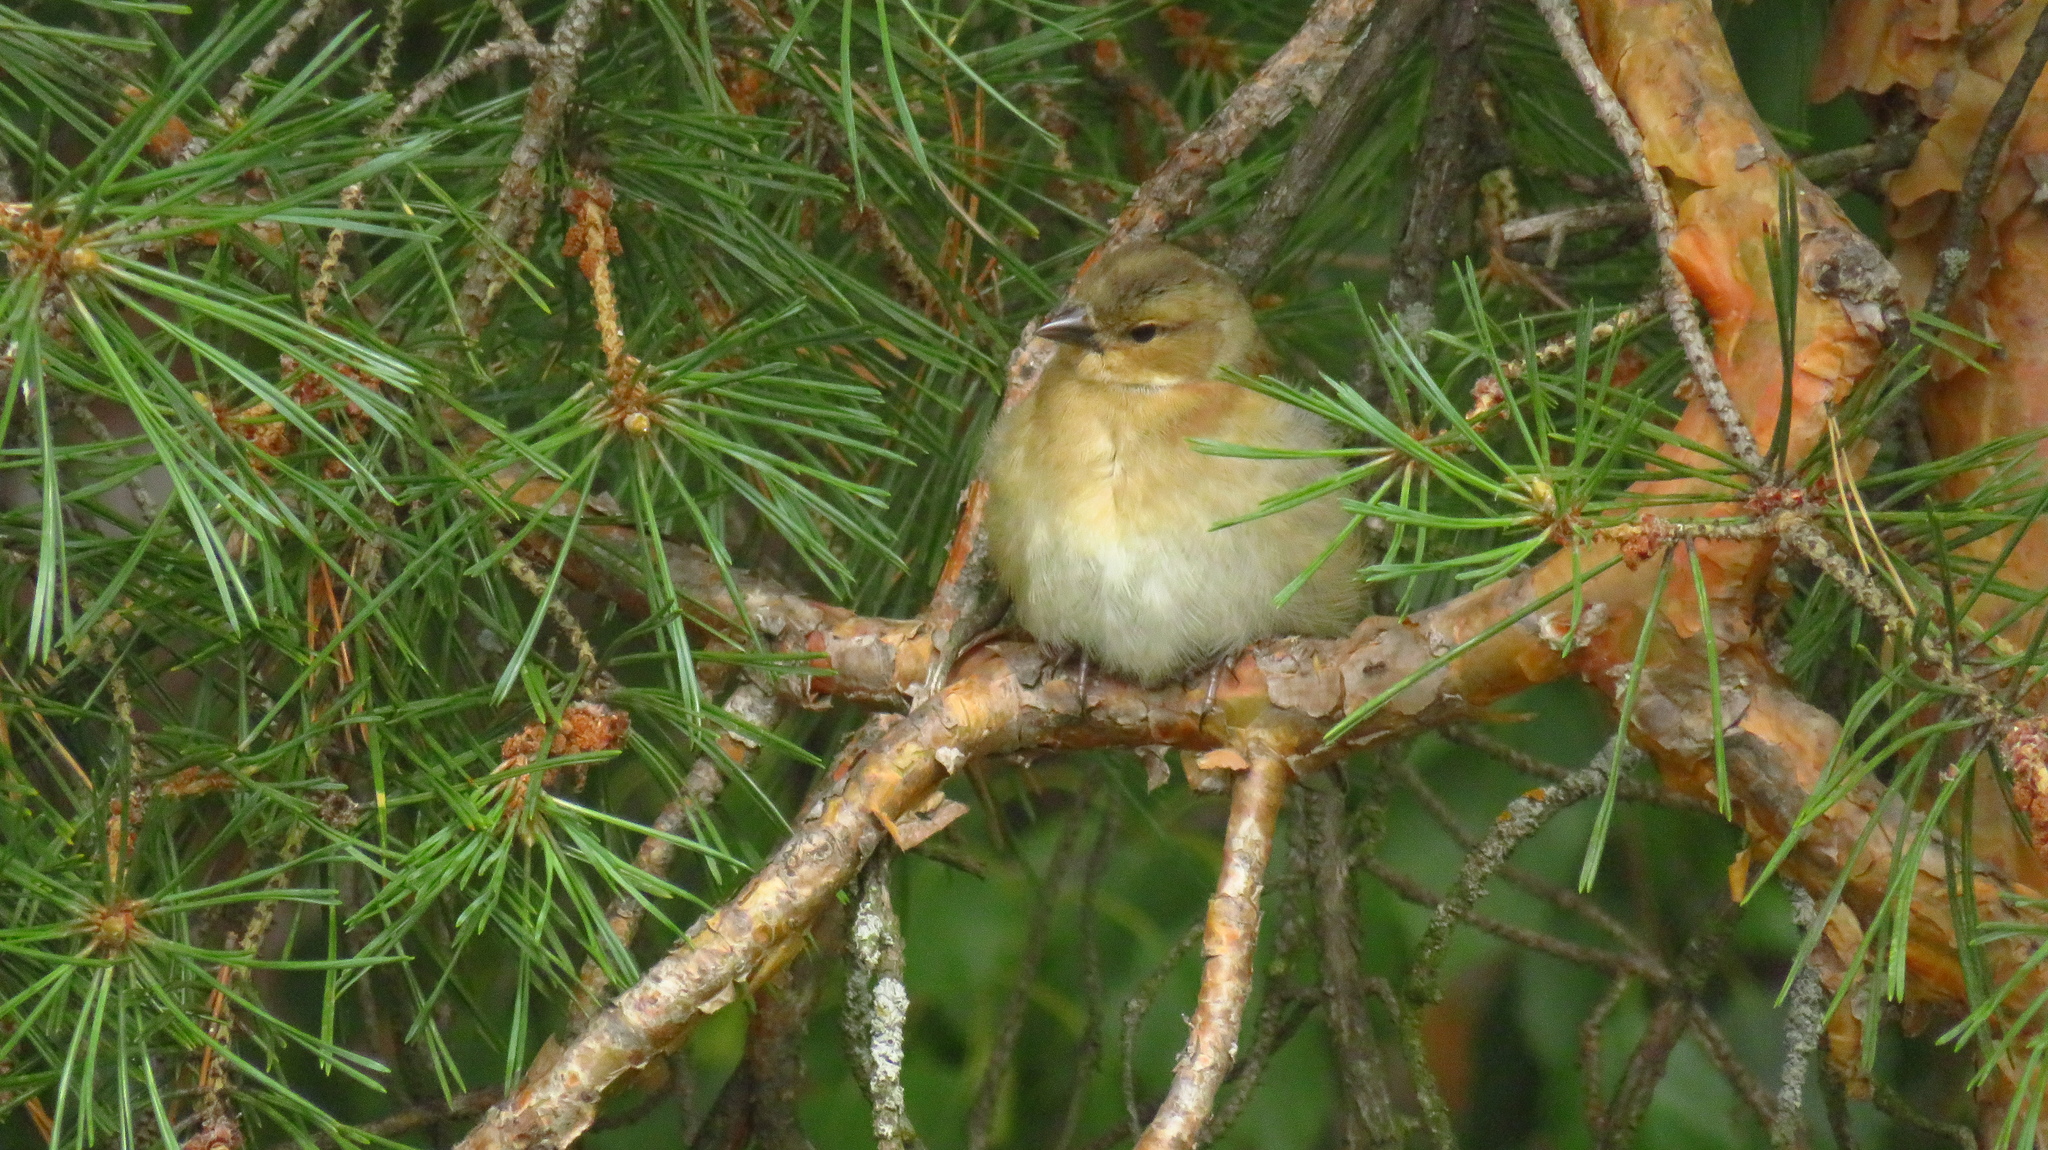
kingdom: Animalia
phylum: Chordata
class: Aves
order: Passeriformes
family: Fringillidae
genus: Fringilla
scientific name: Fringilla coelebs
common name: Common chaffinch
